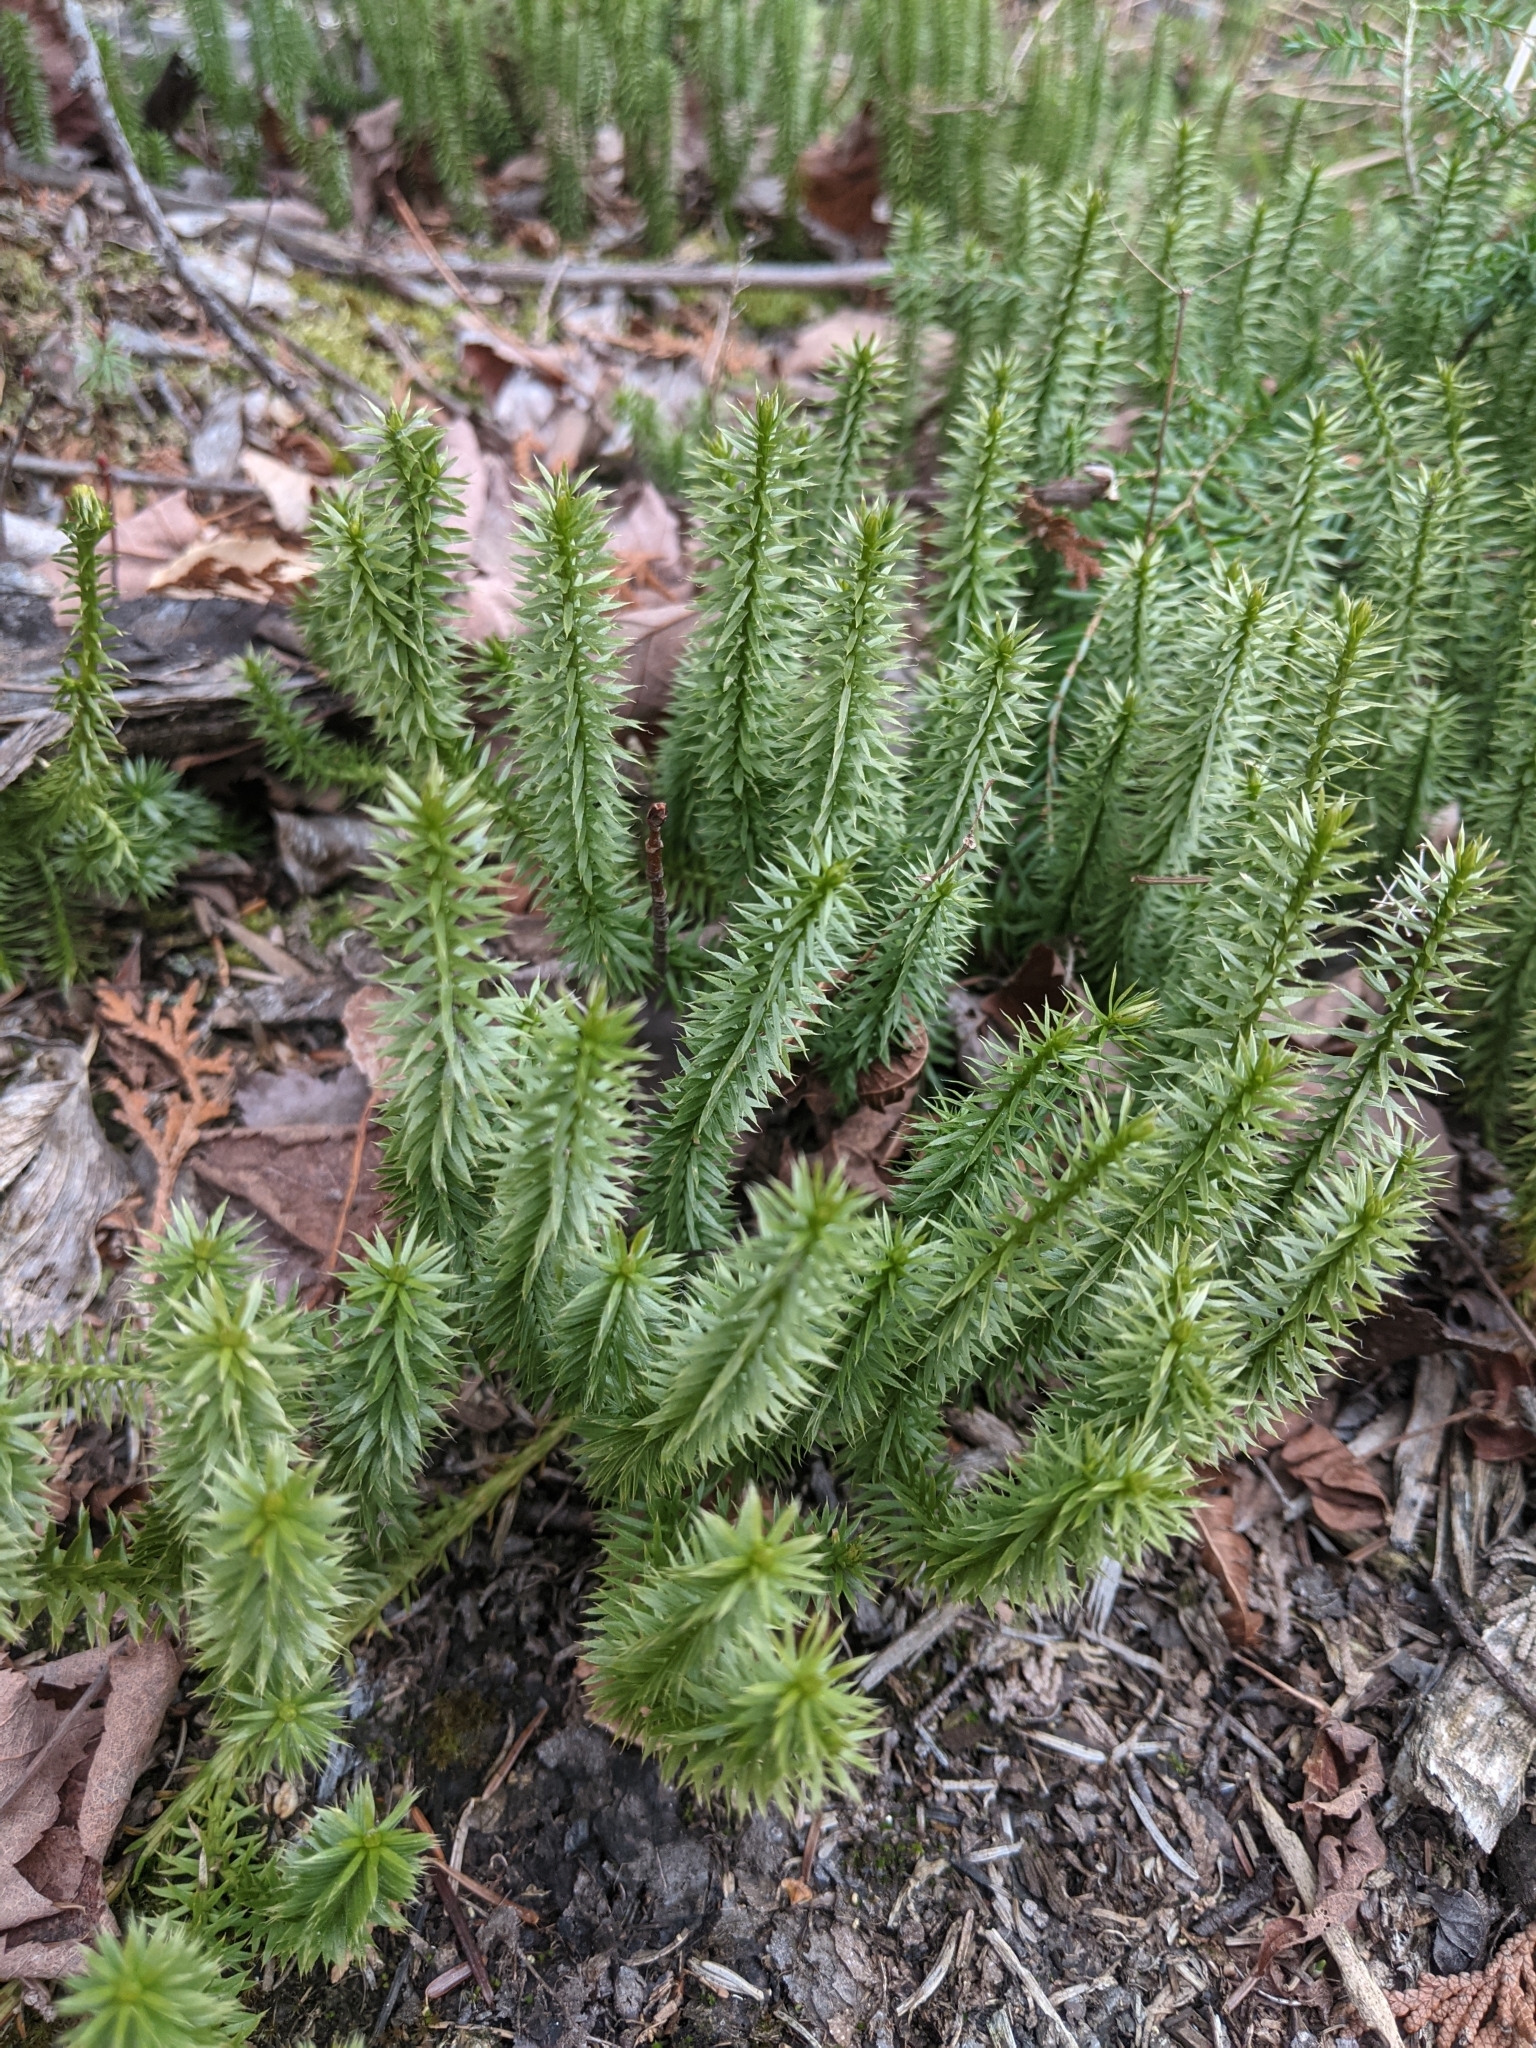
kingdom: Plantae
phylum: Tracheophyta
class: Lycopodiopsida
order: Lycopodiales
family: Lycopodiaceae
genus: Spinulum
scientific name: Spinulum annotinum
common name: Interrupted club-moss
